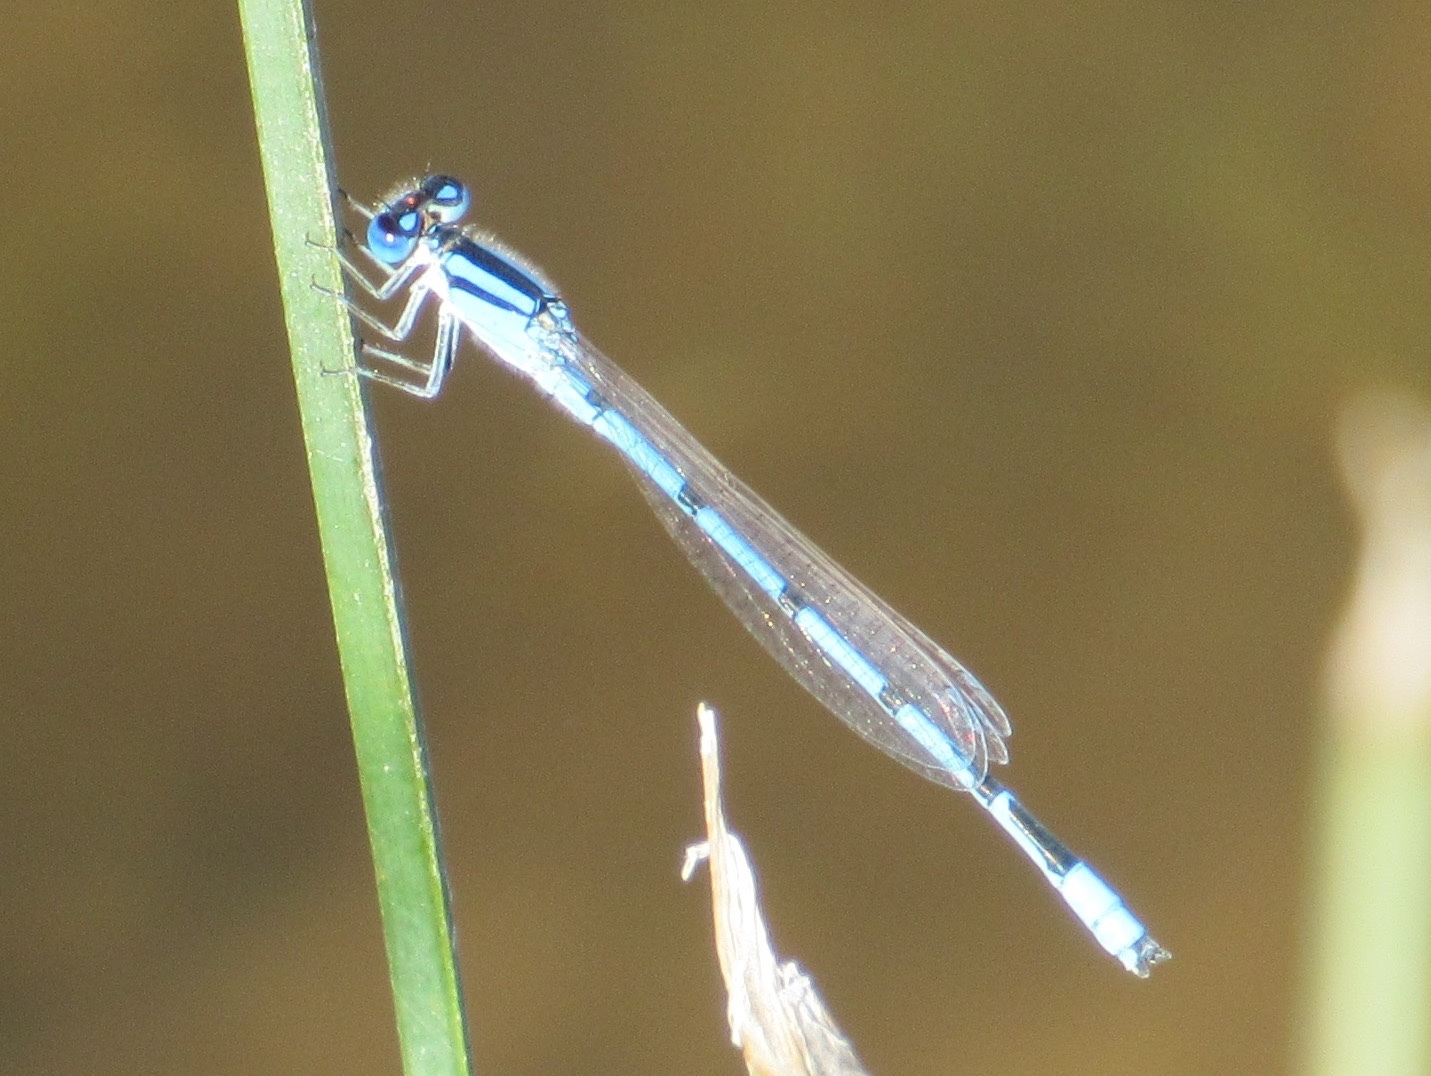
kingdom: Animalia
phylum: Arthropoda
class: Insecta
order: Odonata
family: Coenagrionidae
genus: Enallagma
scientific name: Enallagma civile
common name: Damselfly
